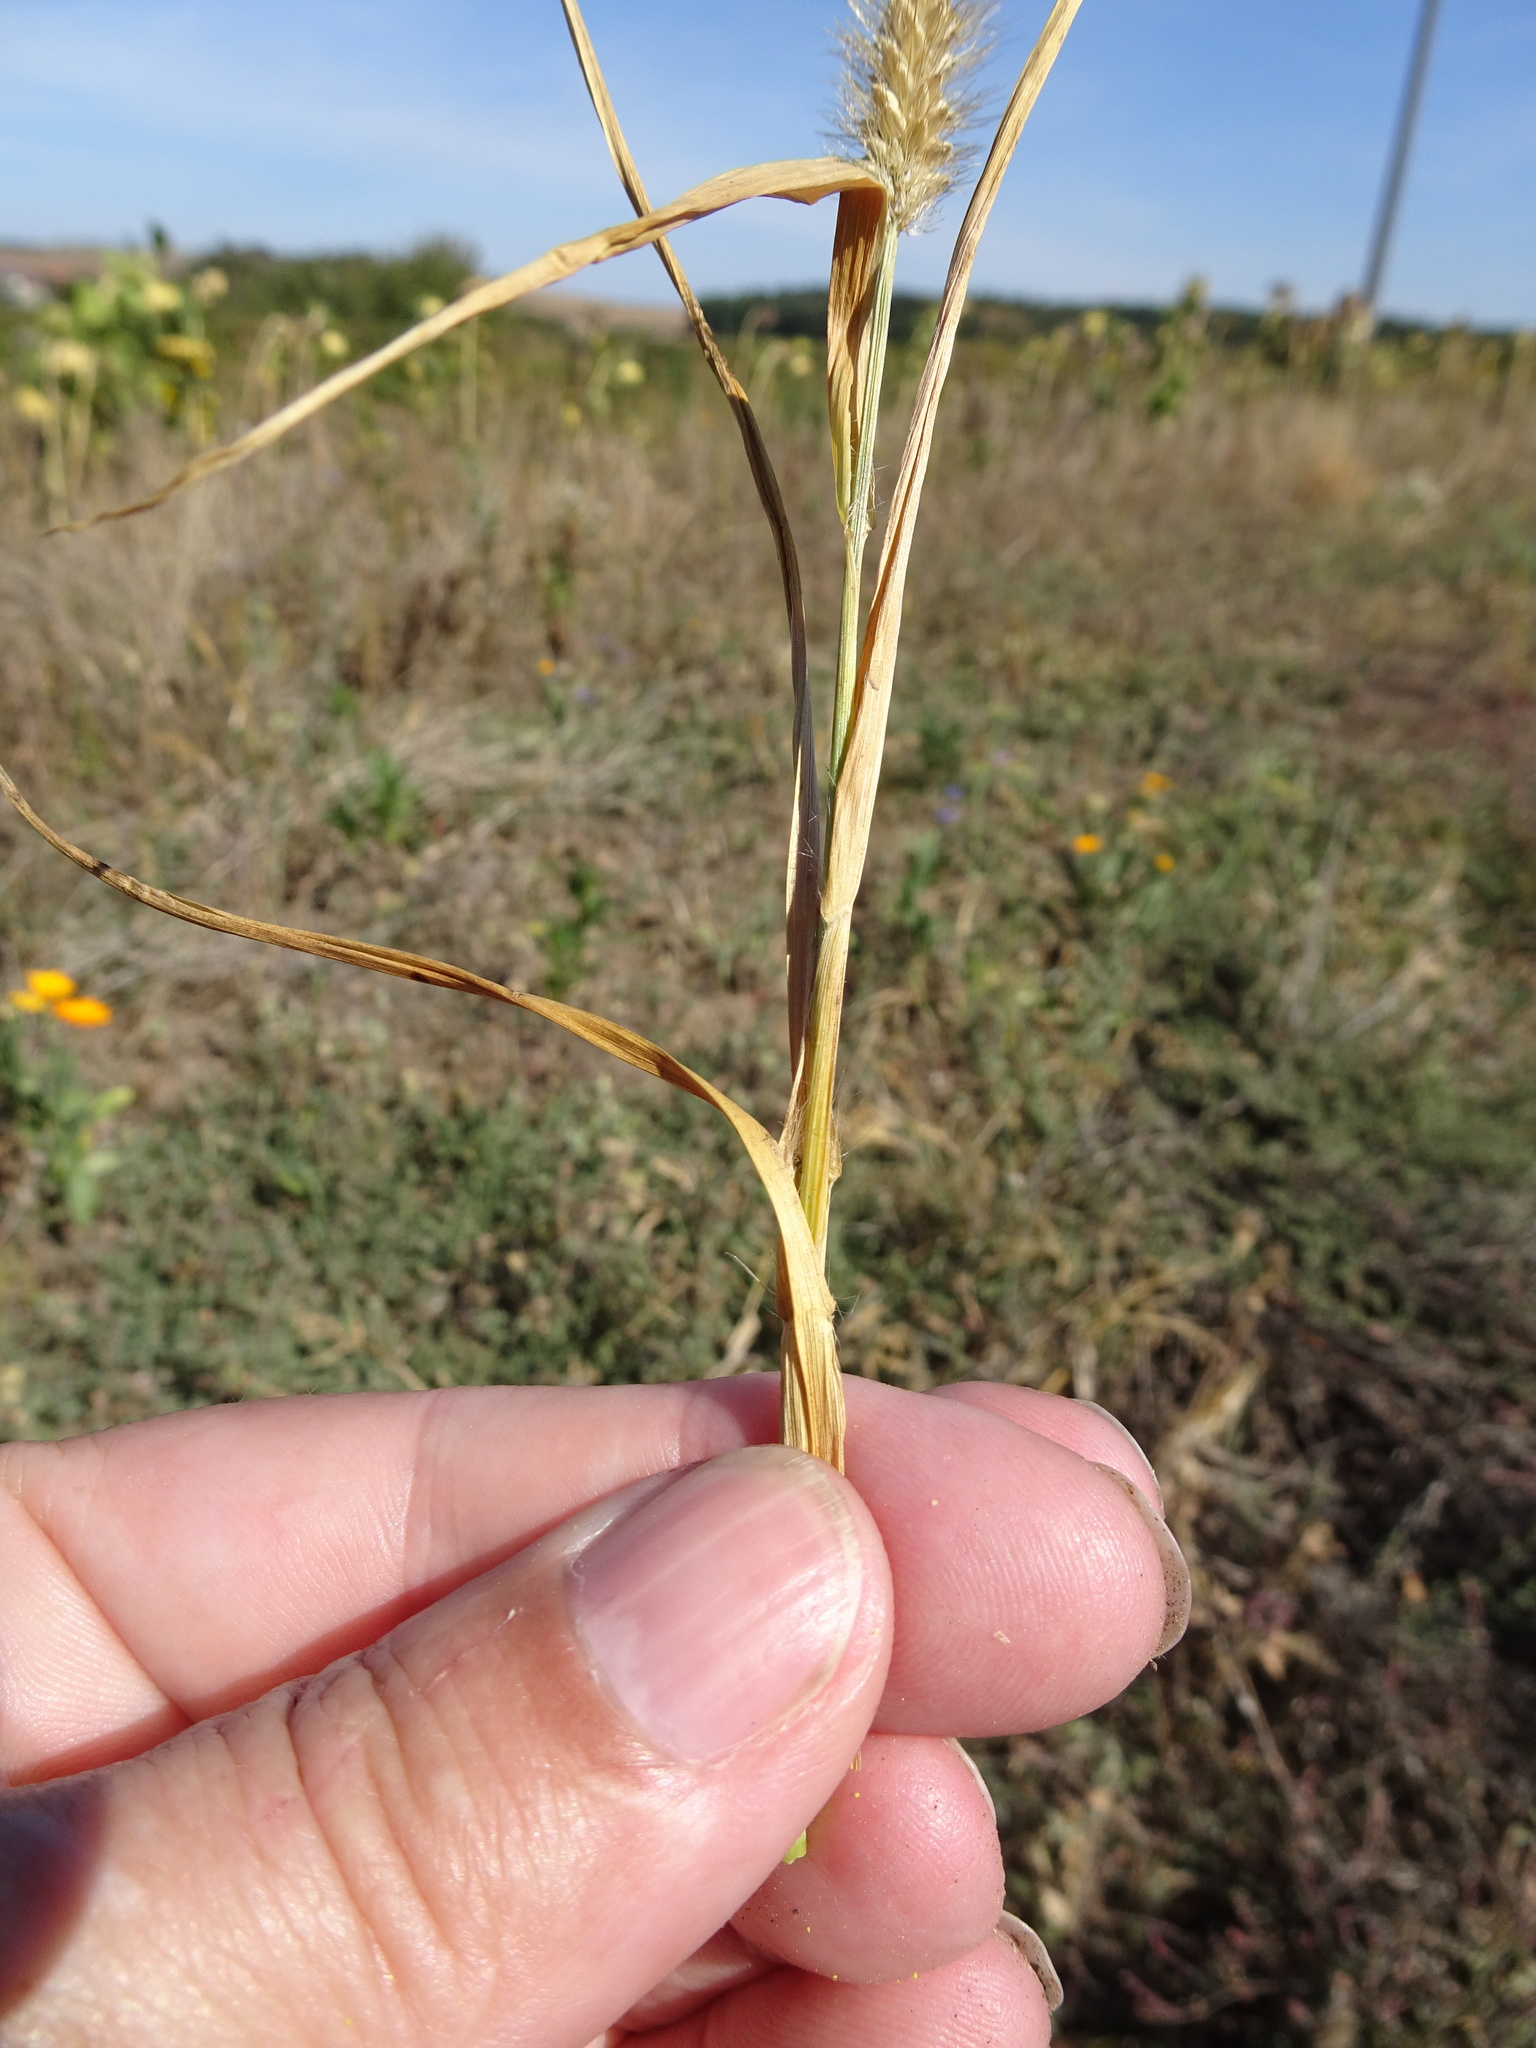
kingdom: Plantae
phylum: Tracheophyta
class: Liliopsida
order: Poales
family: Poaceae
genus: Setaria
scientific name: Setaria pumila
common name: Yellow bristle-grass
